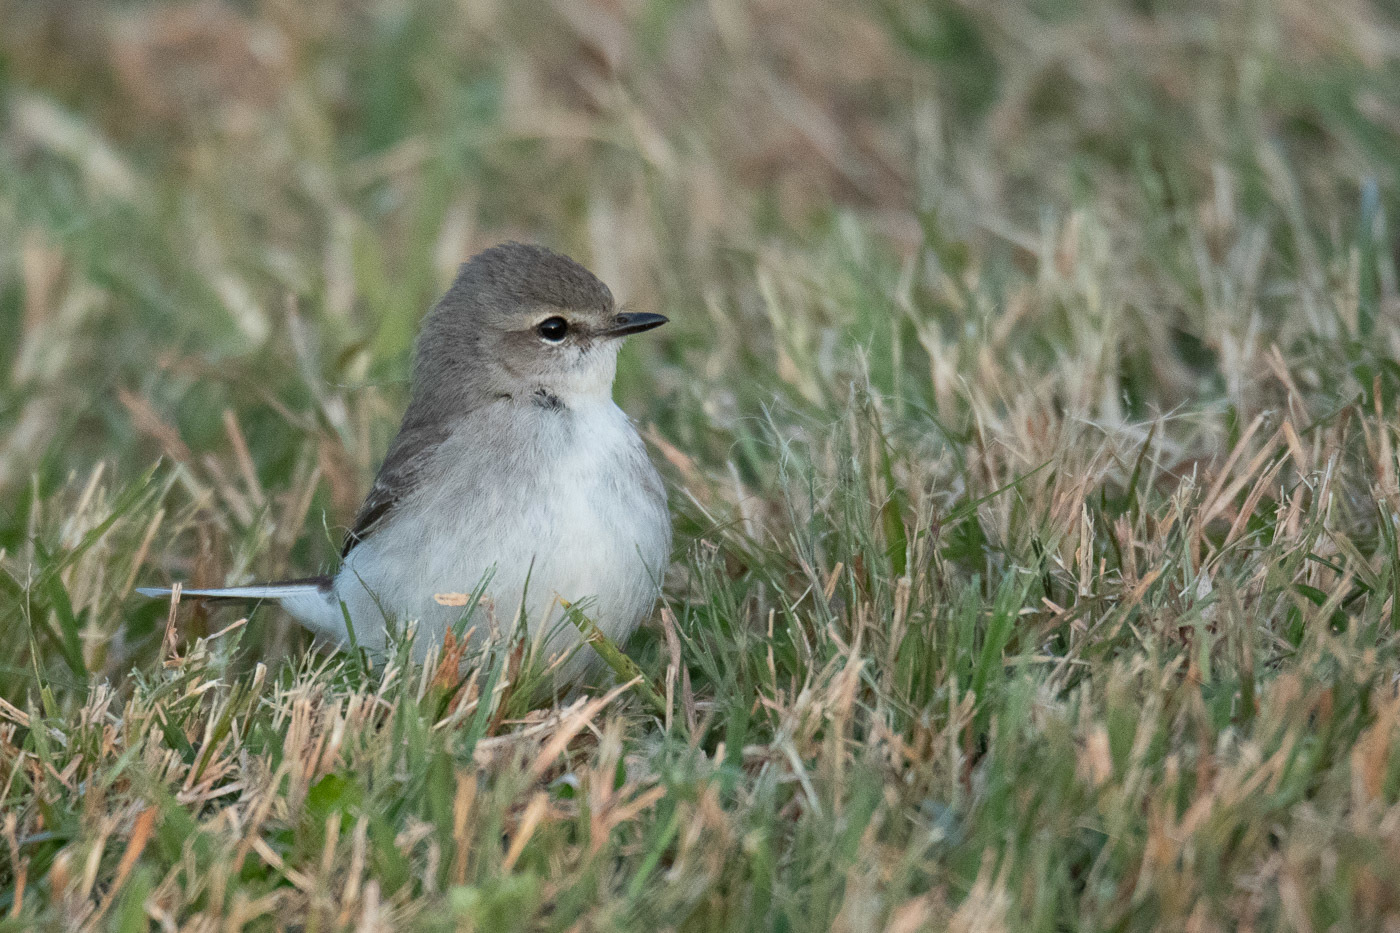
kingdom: Animalia
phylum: Chordata
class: Aves
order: Passeriformes
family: Petroicidae
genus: Microeca
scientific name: Microeca fascinans
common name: Jacky winter
